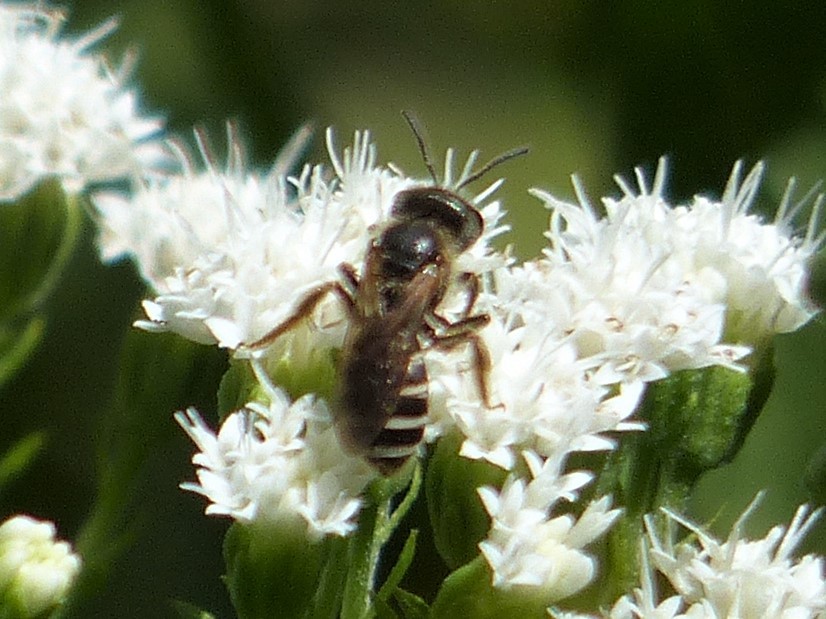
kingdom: Animalia
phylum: Arthropoda
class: Insecta
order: Hymenoptera
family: Halictidae
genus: Halictus
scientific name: Halictus ligatus
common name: Ligated furrow bee
